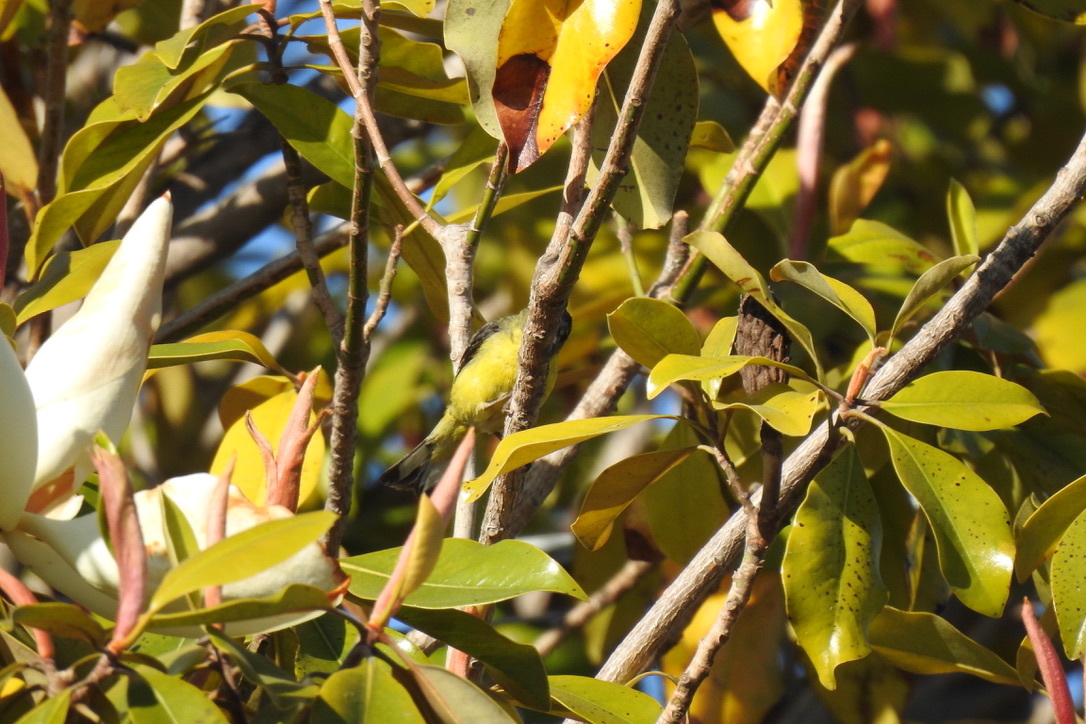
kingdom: Animalia
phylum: Chordata
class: Aves
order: Passeriformes
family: Fringillidae
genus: Spinus
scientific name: Spinus psaltria
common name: Lesser goldfinch
